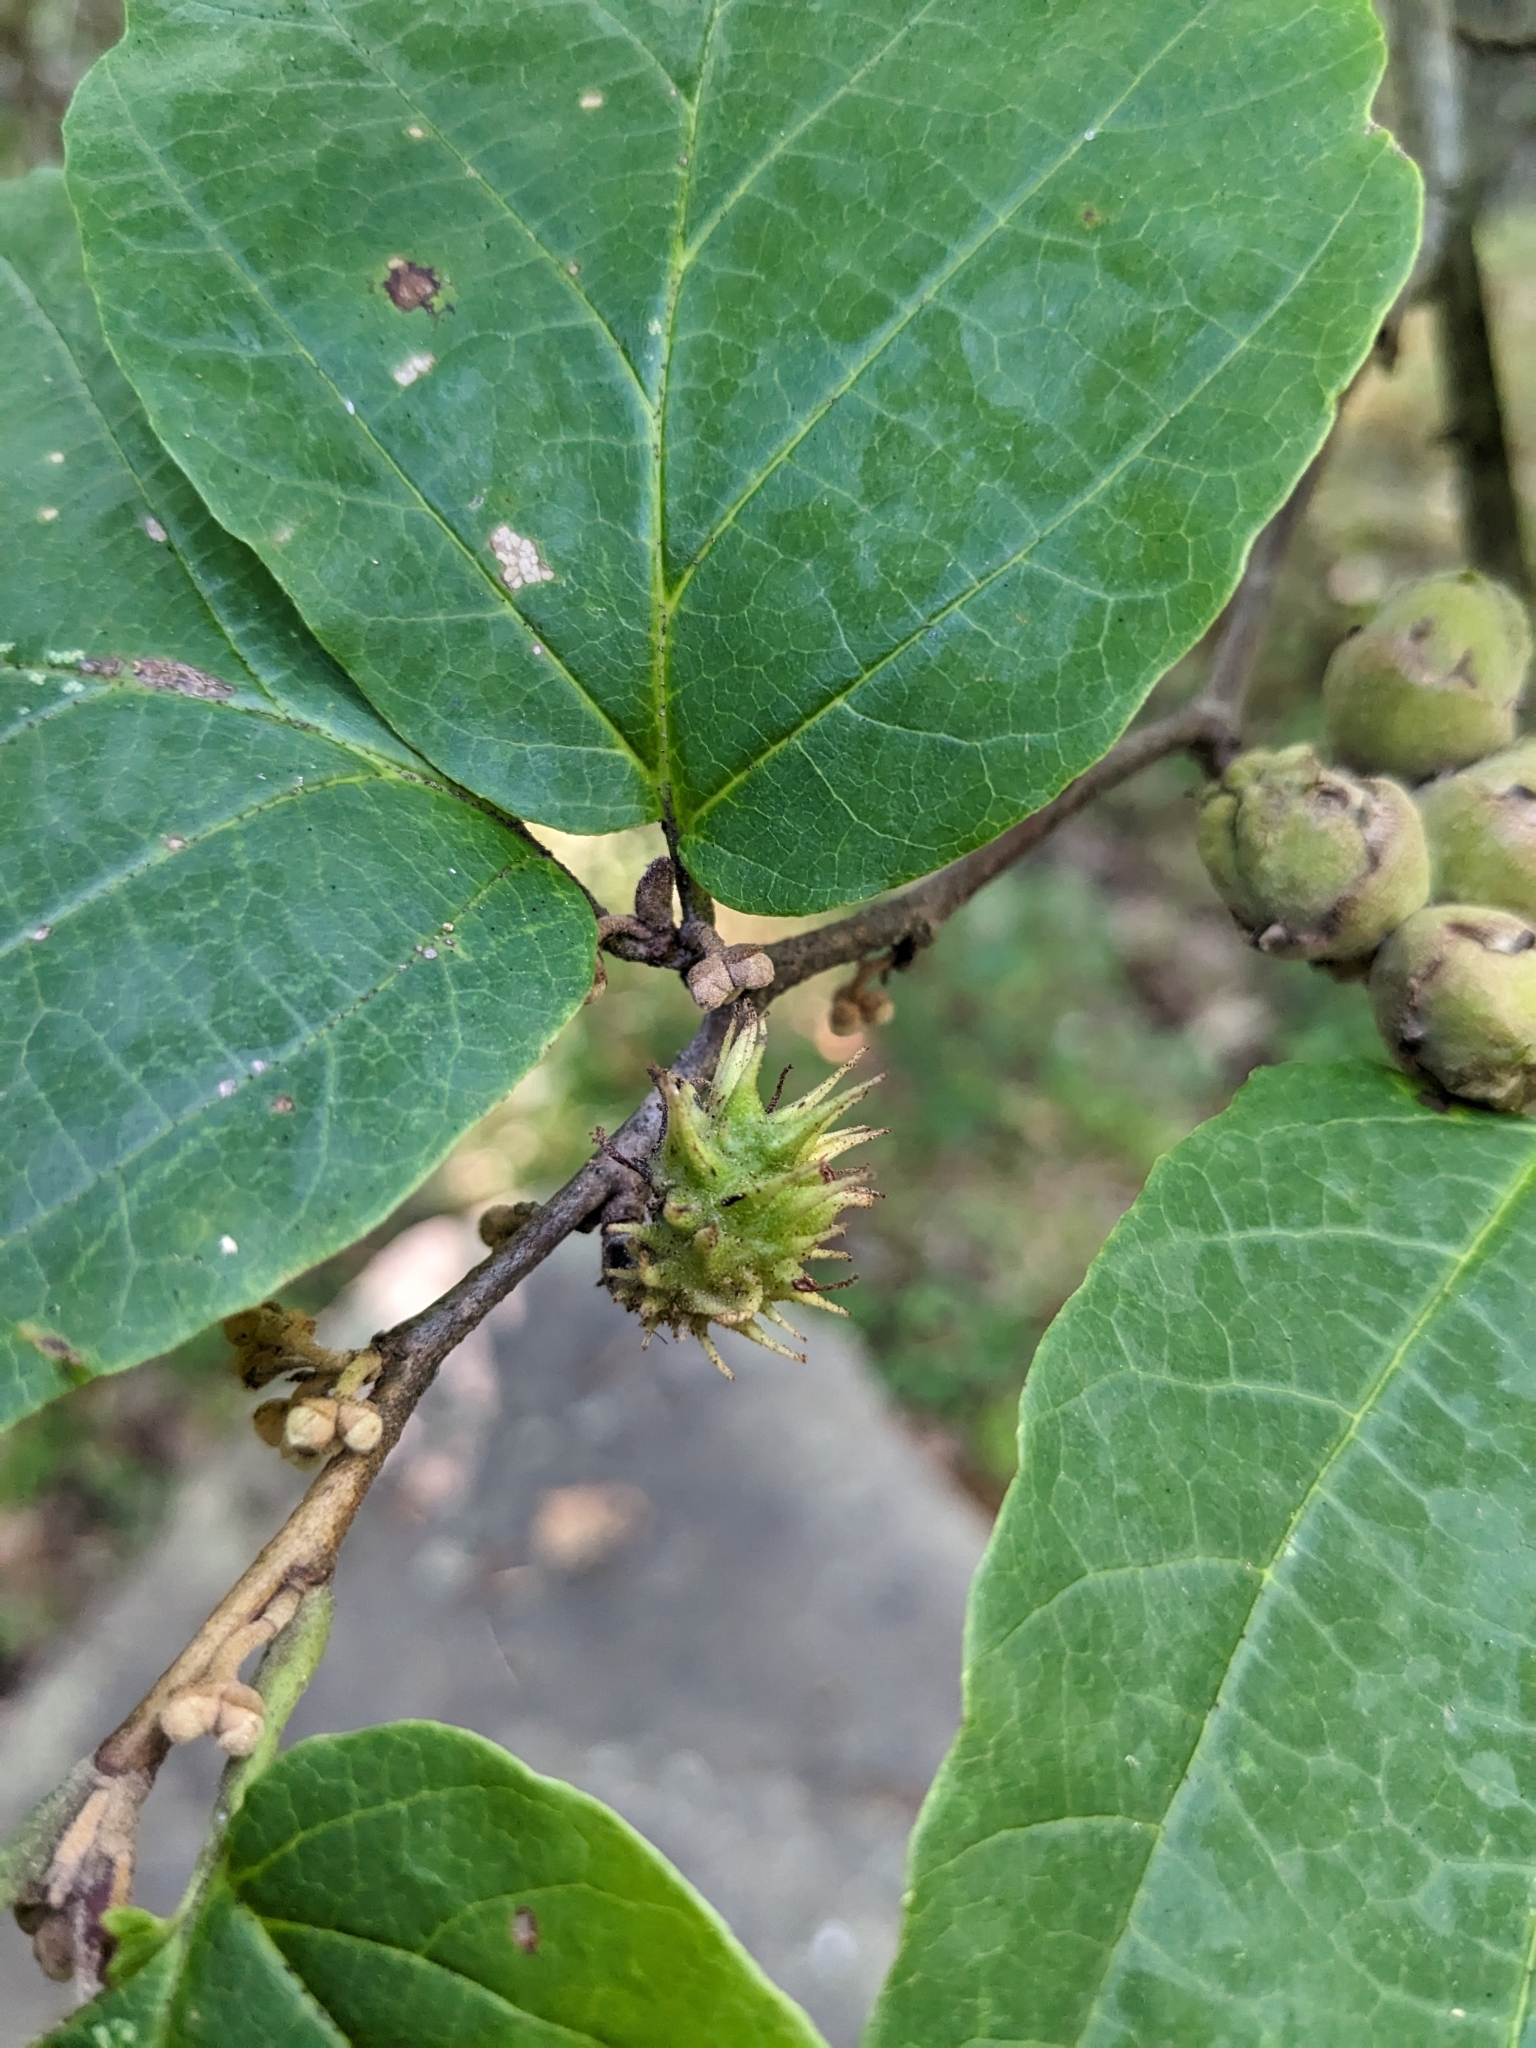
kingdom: Animalia
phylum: Arthropoda
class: Insecta
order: Hemiptera
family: Aphididae
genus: Hamamelistes
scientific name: Hamamelistes spinosus
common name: Witch hazel gall aphid
